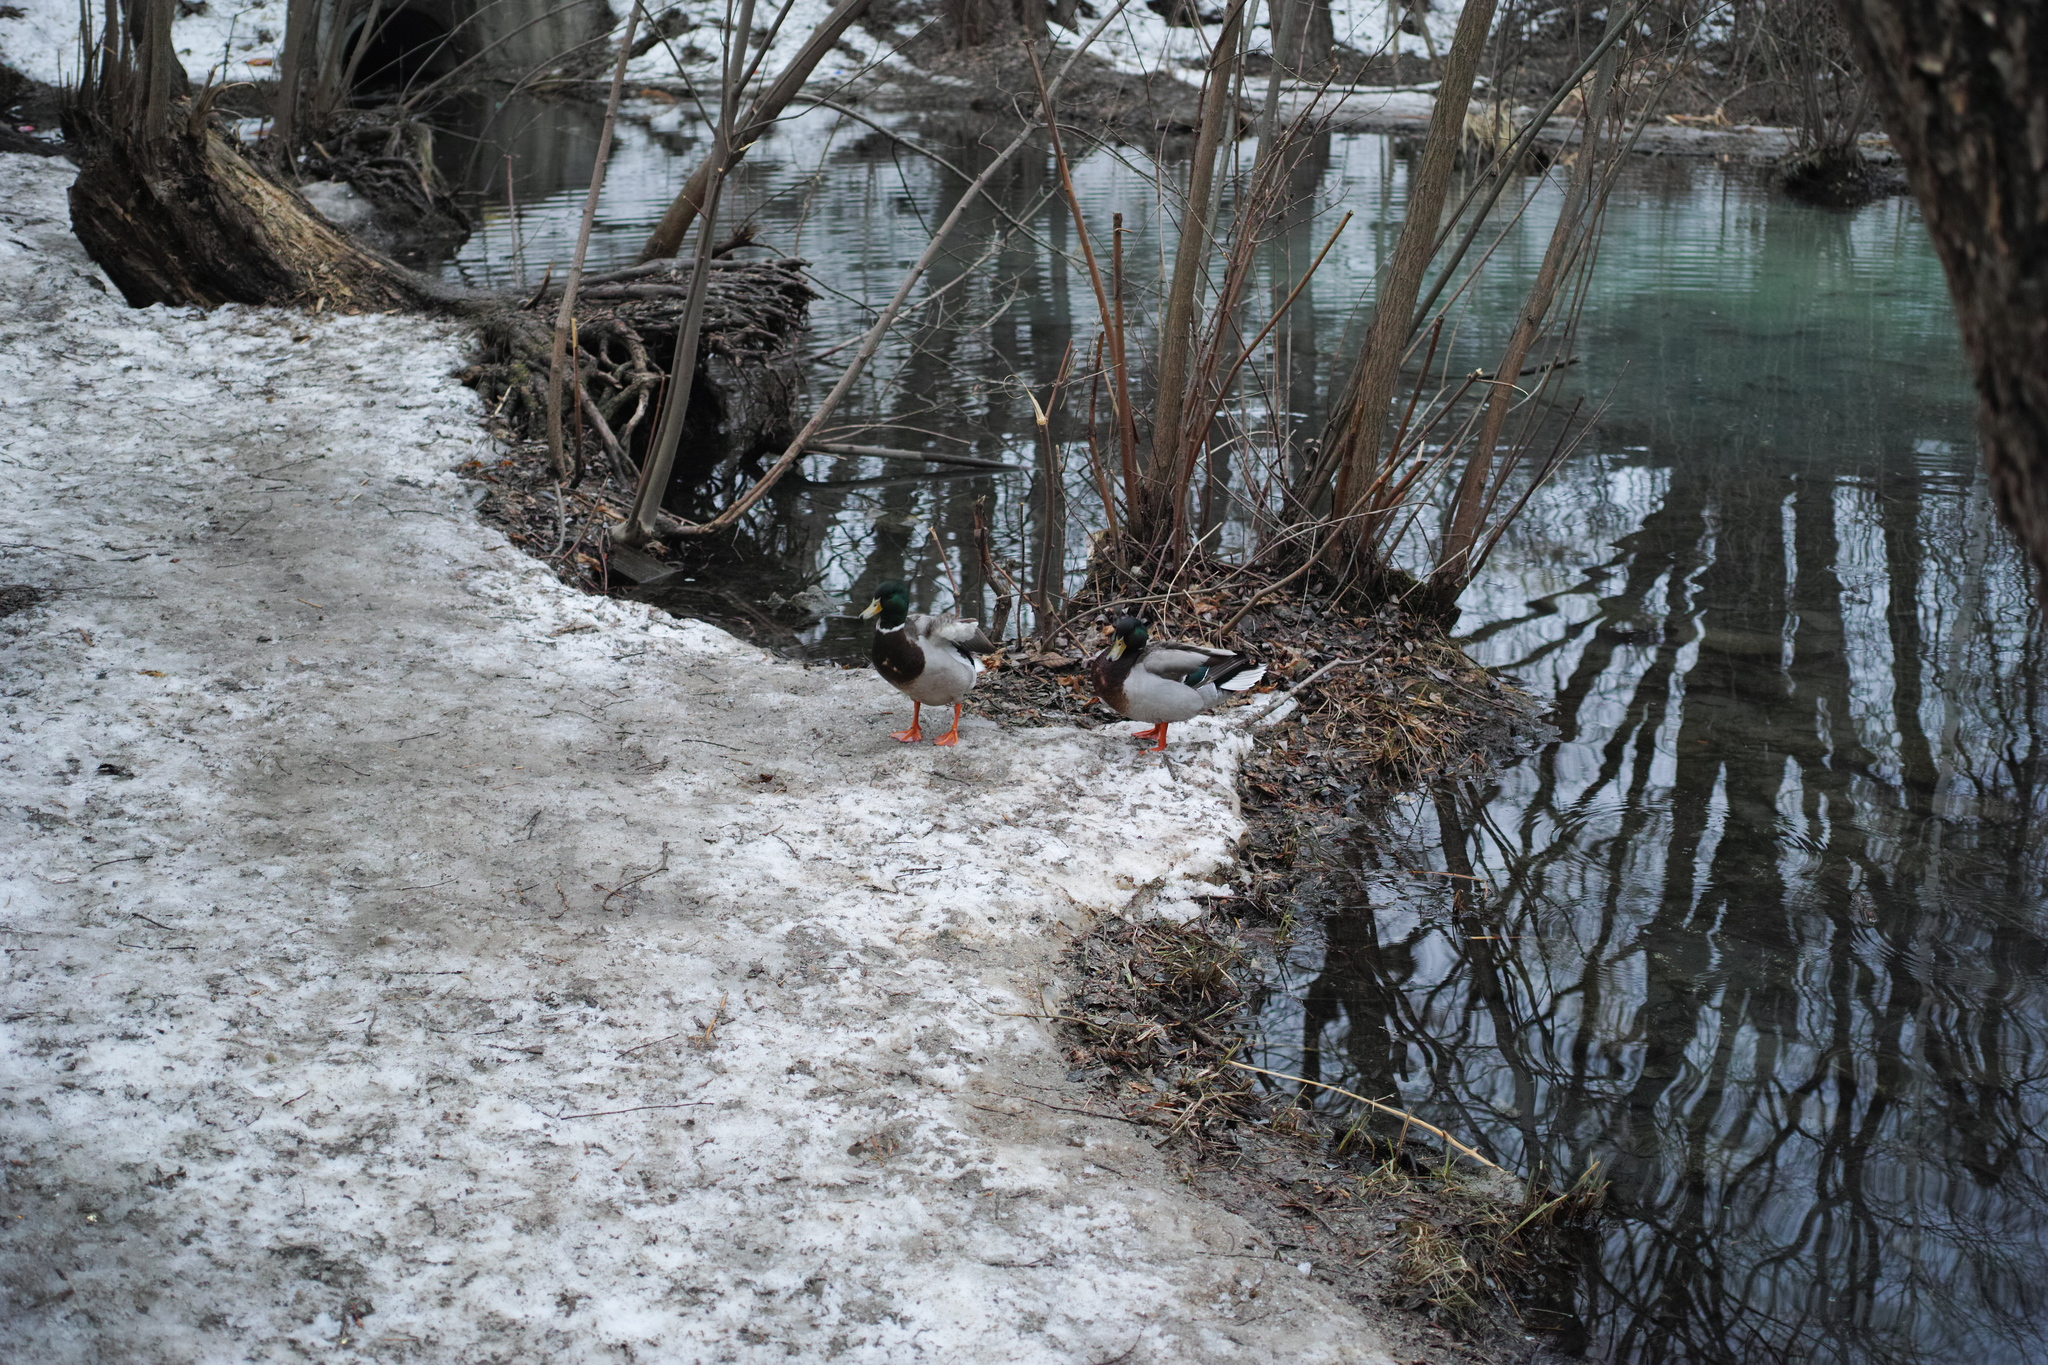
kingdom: Animalia
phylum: Chordata
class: Aves
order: Anseriformes
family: Anatidae
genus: Anas
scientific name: Anas platyrhynchos
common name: Mallard
